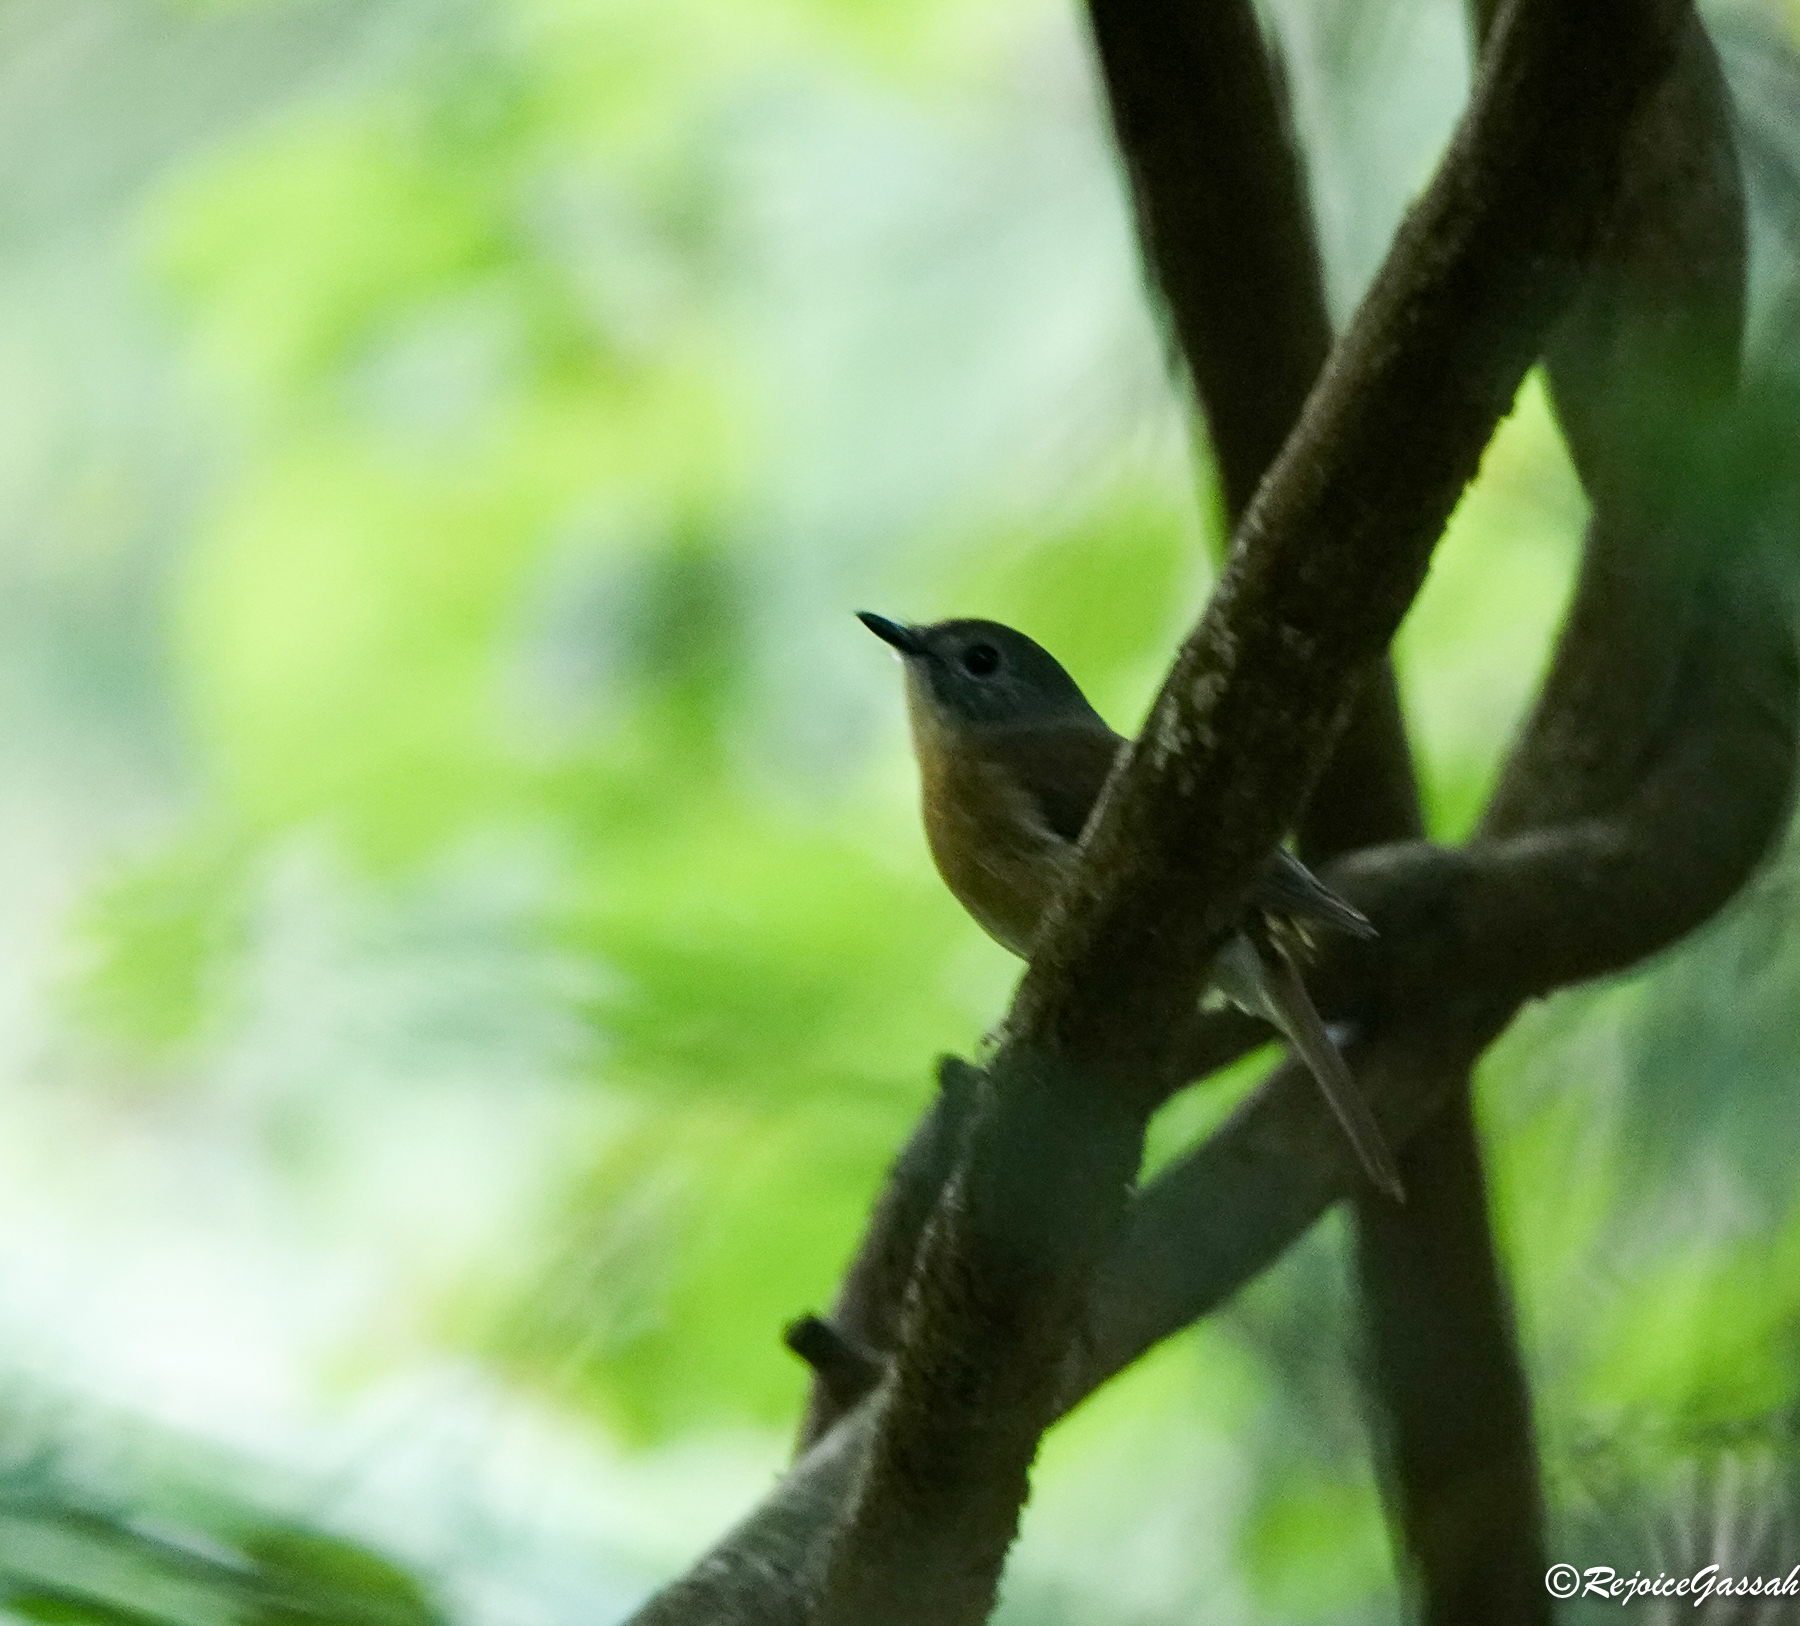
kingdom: Animalia
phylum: Chordata
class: Aves
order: Passeriformes
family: Muscicapidae
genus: Cyornis
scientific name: Cyornis poliogenys
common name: Pale-chinned blue flycatcher
